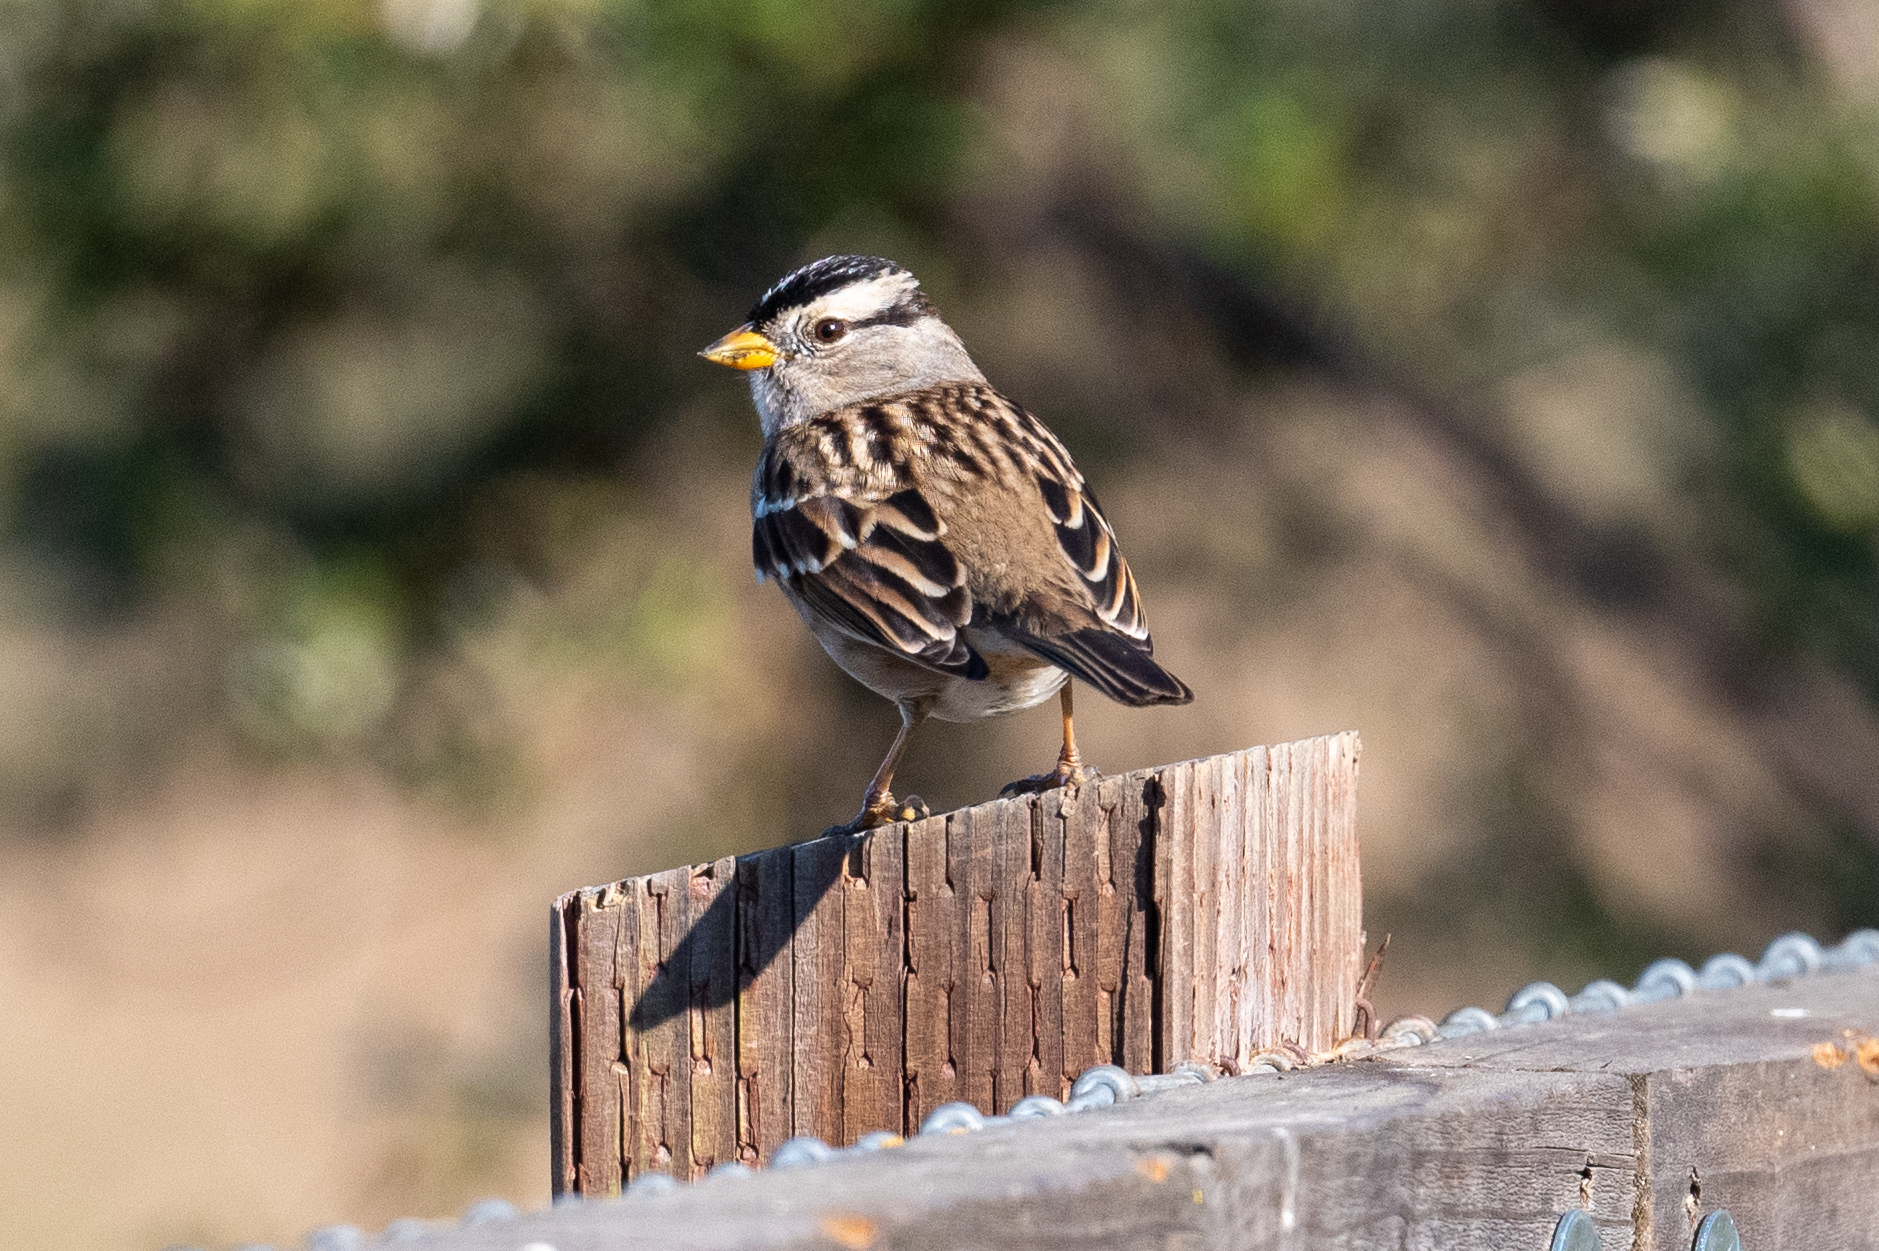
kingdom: Animalia
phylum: Chordata
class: Aves
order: Passeriformes
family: Passerellidae
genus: Zonotrichia
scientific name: Zonotrichia leucophrys
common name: White-crowned sparrow
